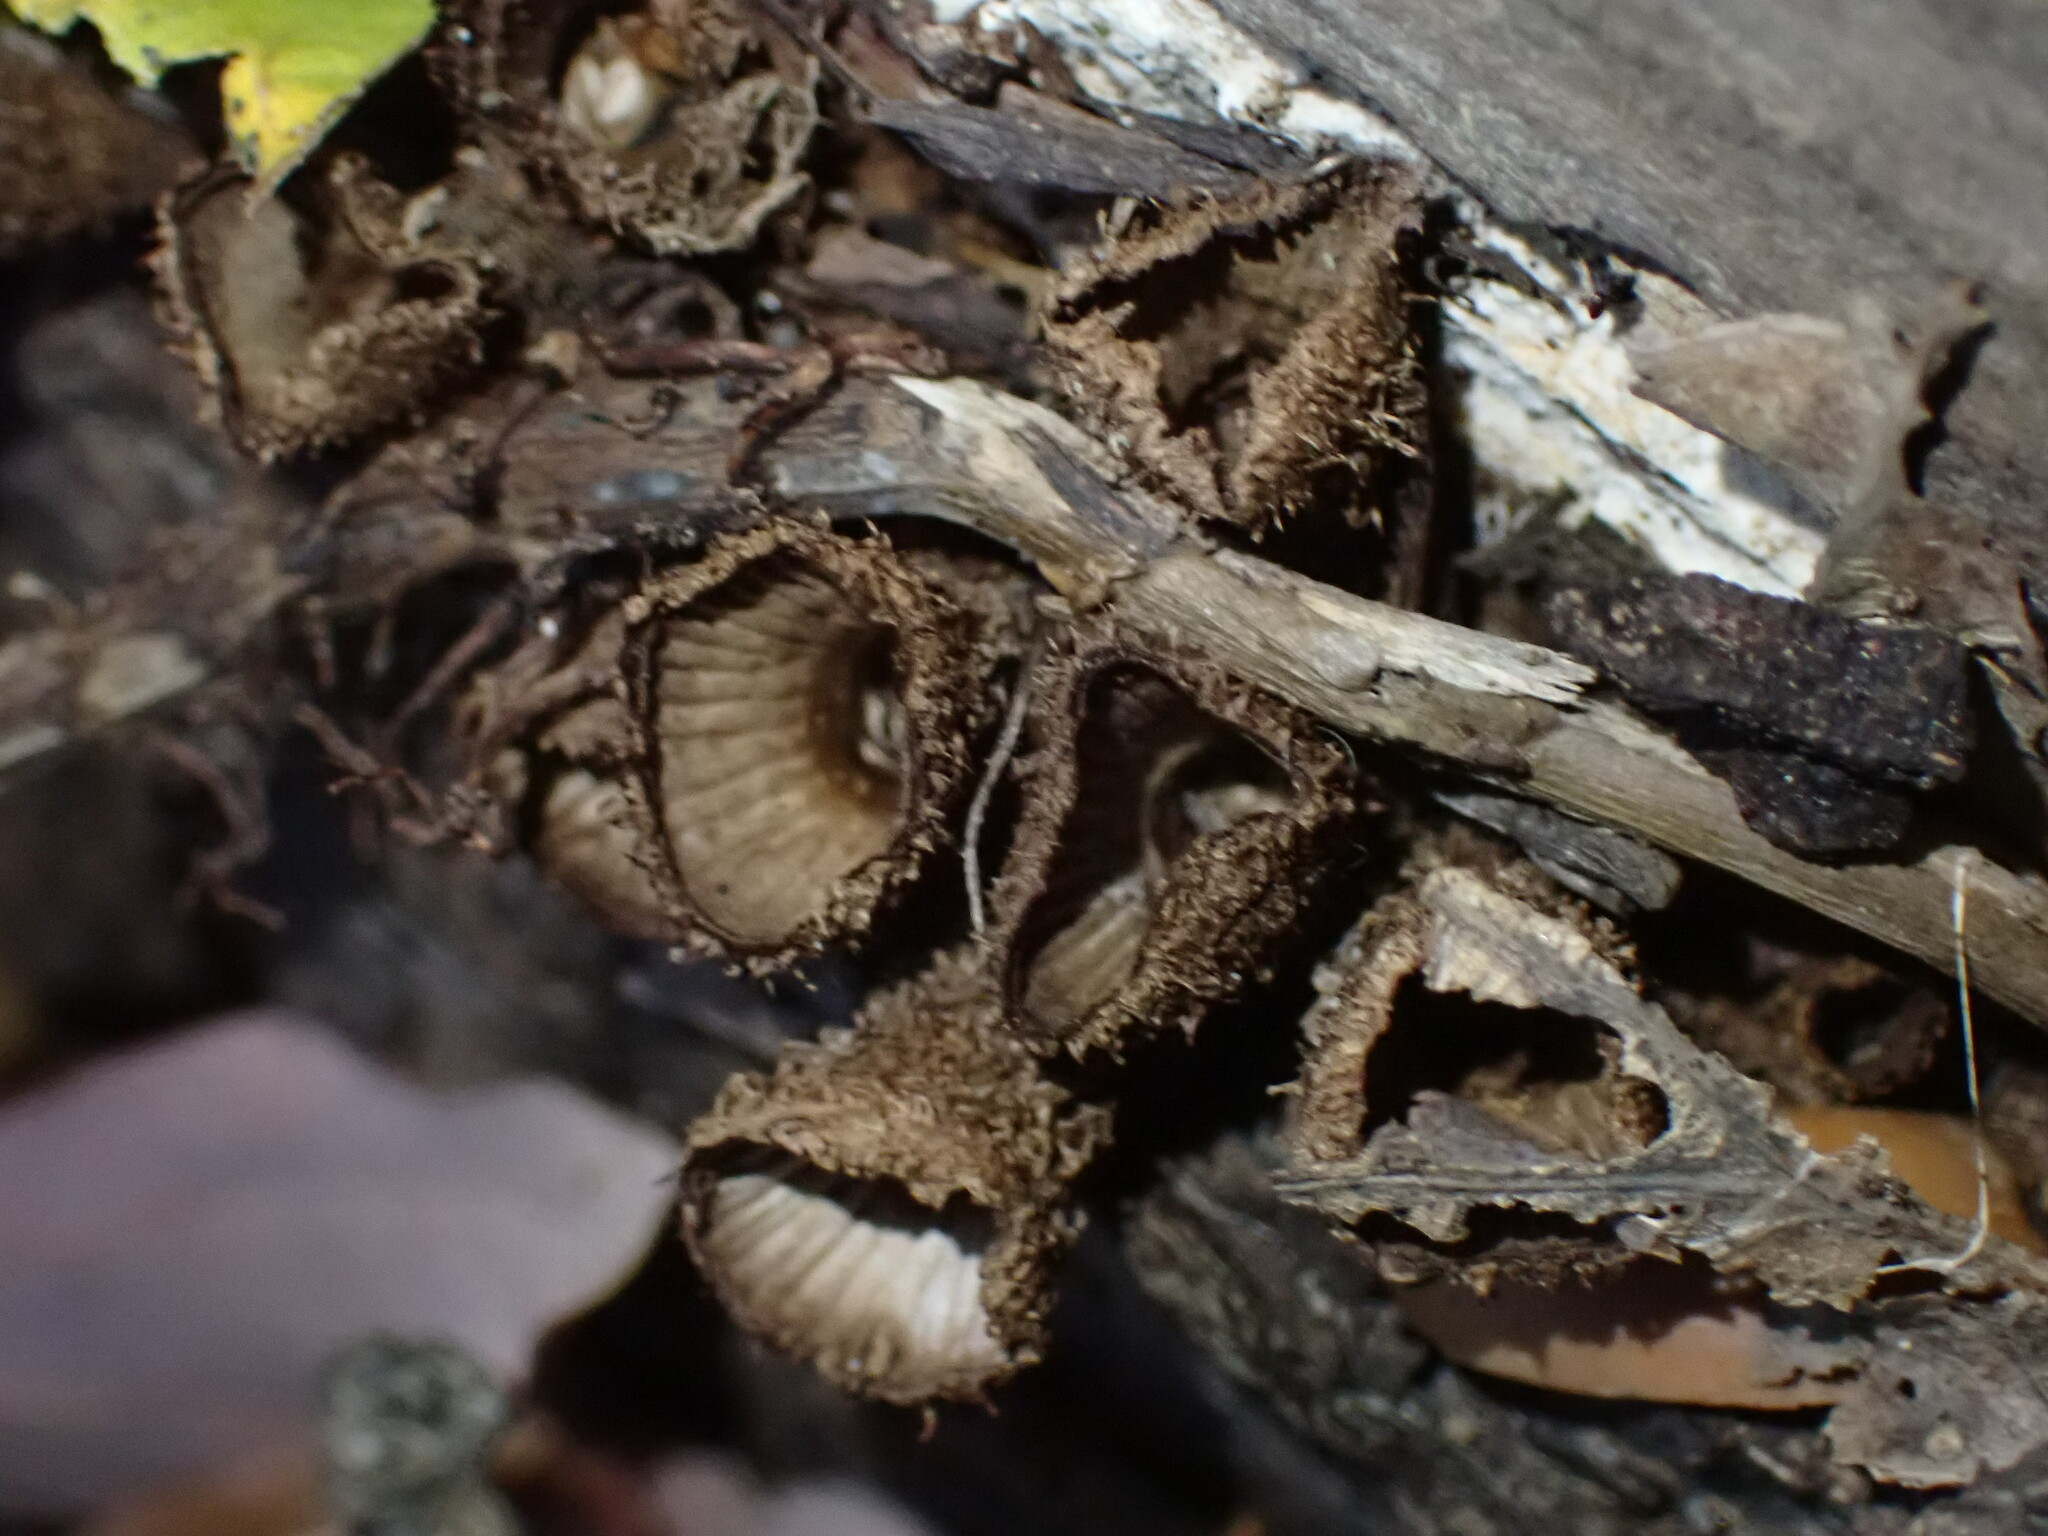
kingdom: Fungi
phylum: Basidiomycota
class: Agaricomycetes
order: Agaricales
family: Agaricaceae
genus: Cyathus
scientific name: Cyathus striatus
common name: Fluted bird's nest
